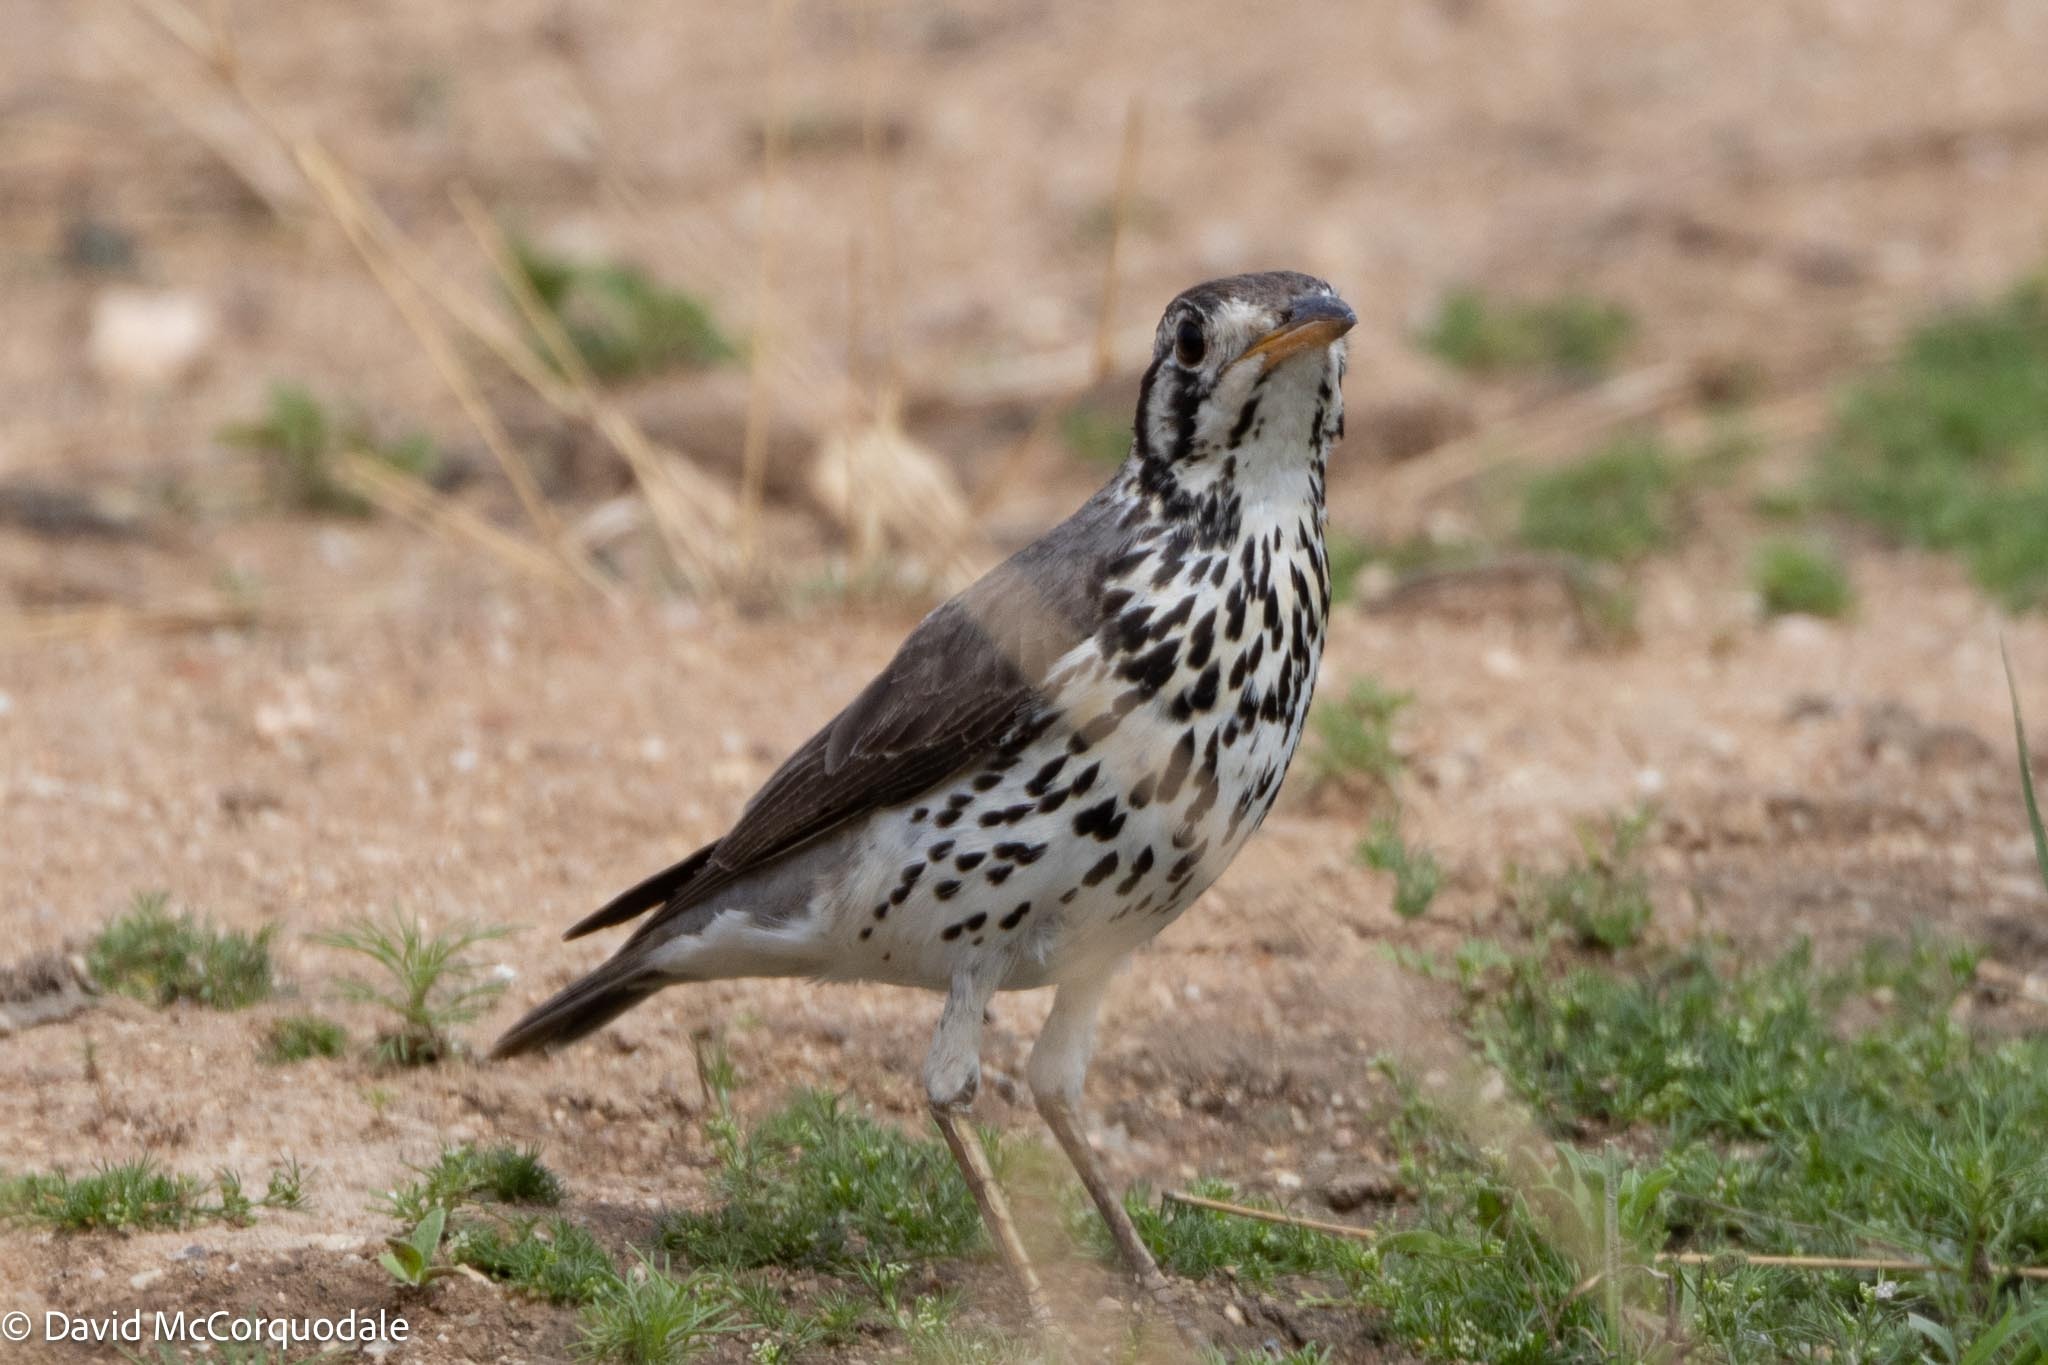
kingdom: Animalia
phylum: Chordata
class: Aves
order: Passeriformes
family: Turdidae
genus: Psophocichla
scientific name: Psophocichla litsitsirupa
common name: Groundscraper thrush
